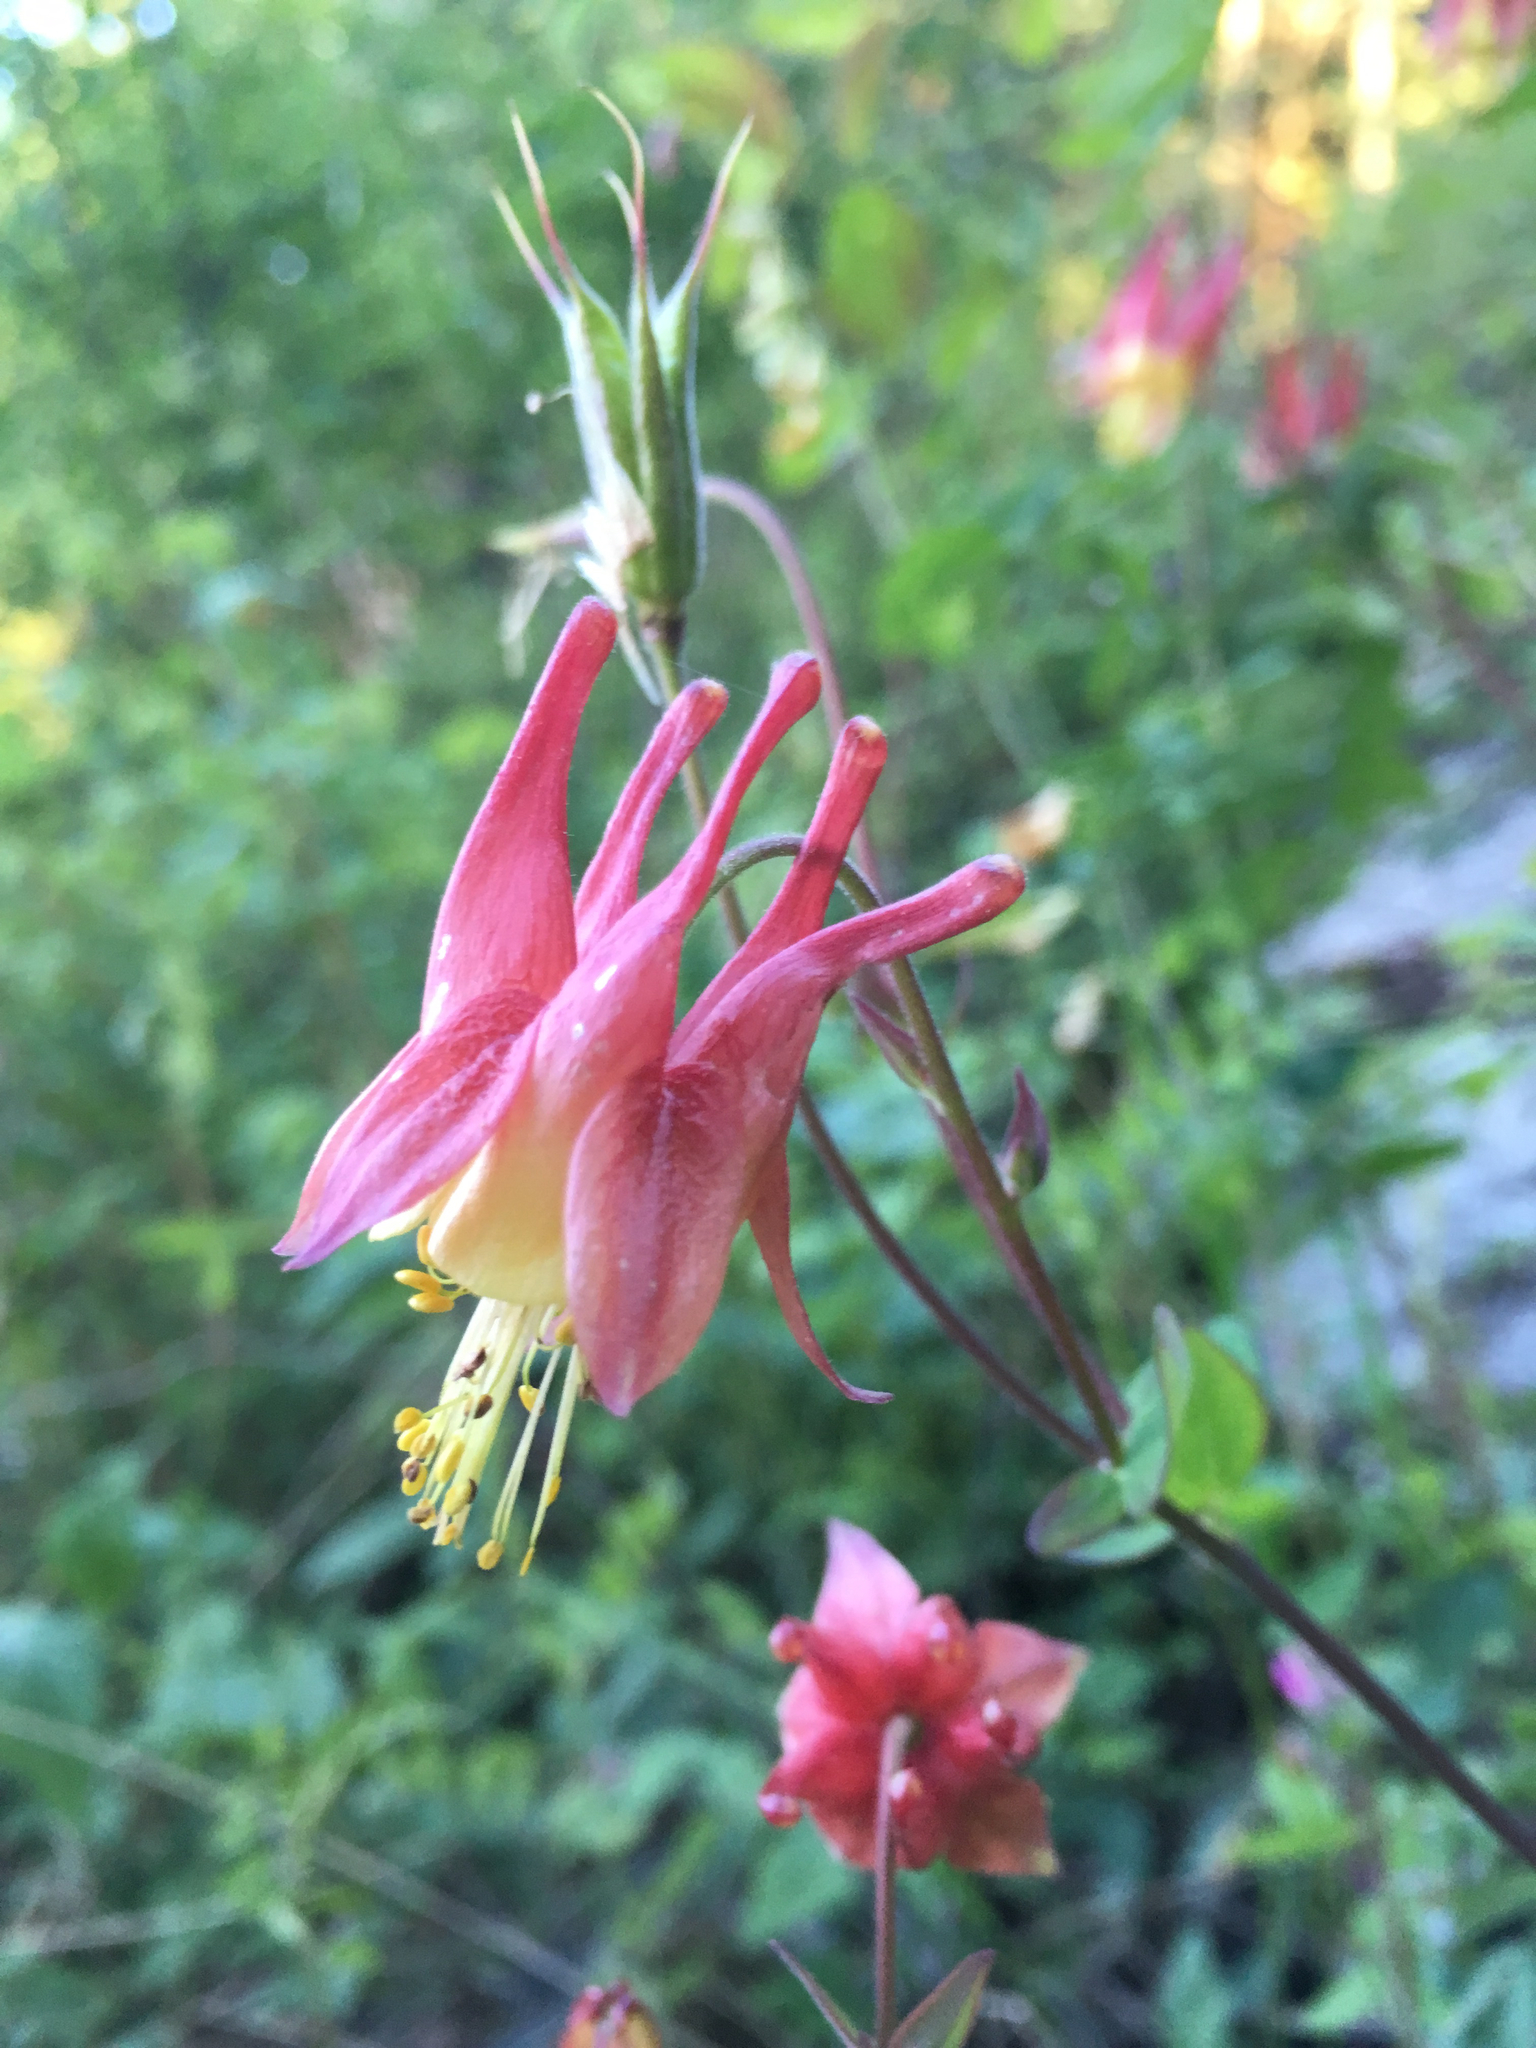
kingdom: Plantae
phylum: Tracheophyta
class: Magnoliopsida
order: Ranunculales
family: Ranunculaceae
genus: Aquilegia
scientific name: Aquilegia canadensis
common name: American columbine
